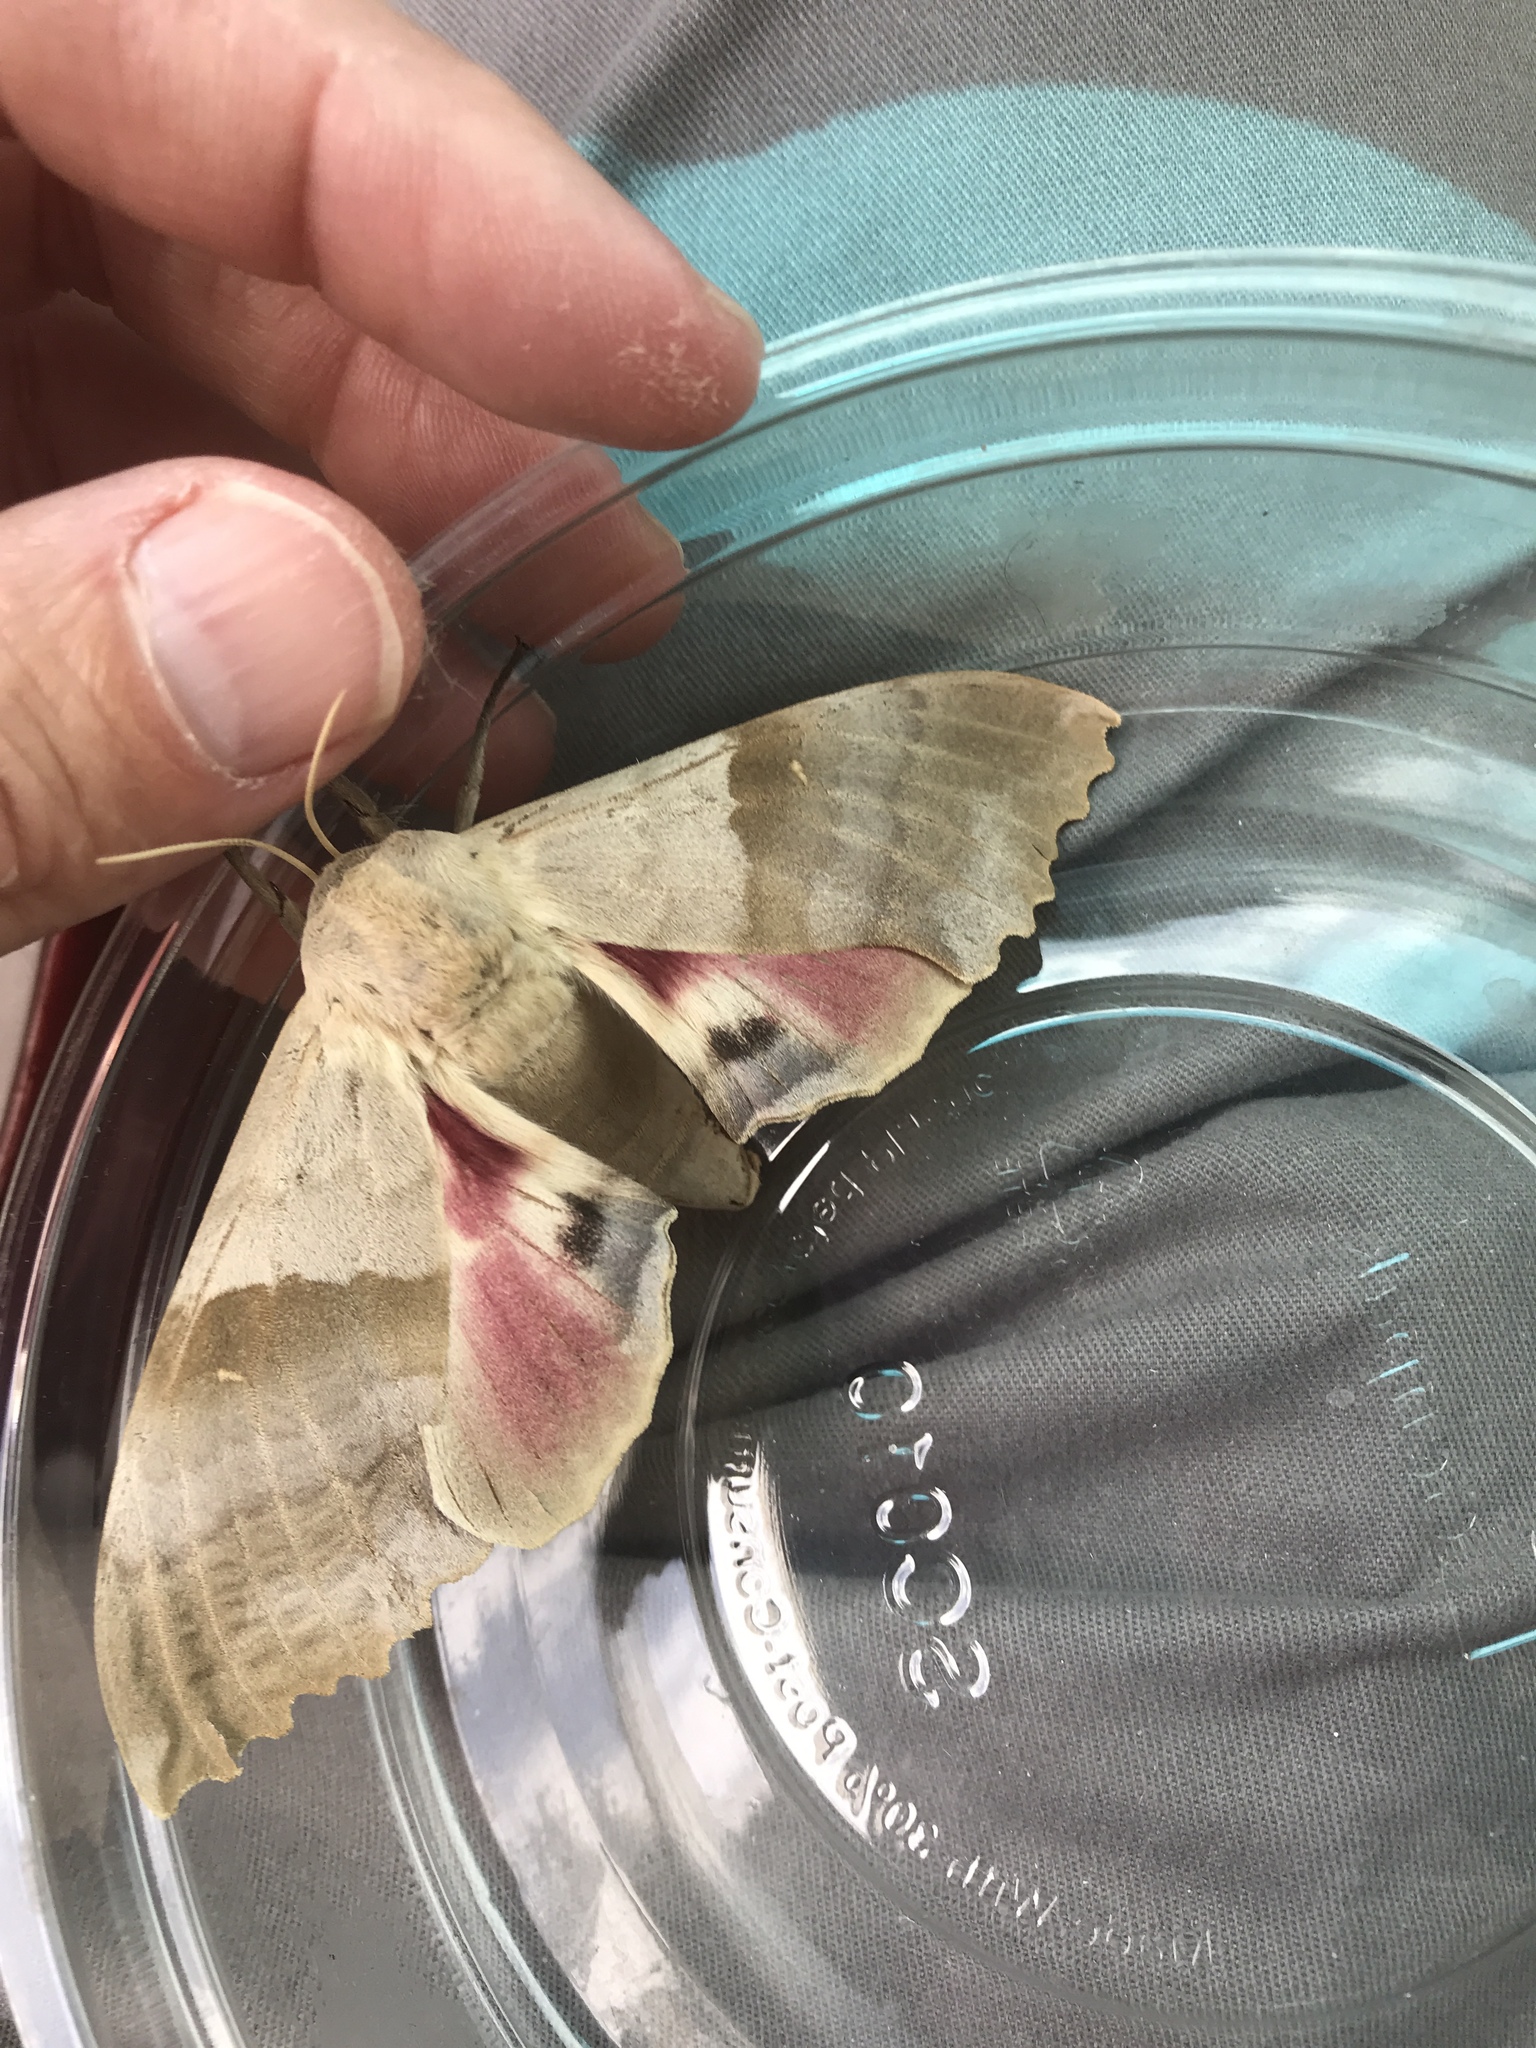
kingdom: Animalia
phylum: Arthropoda
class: Insecta
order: Lepidoptera
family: Sphingidae
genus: Pachysphinx
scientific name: Pachysphinx modesta
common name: Big poplar sphinx
